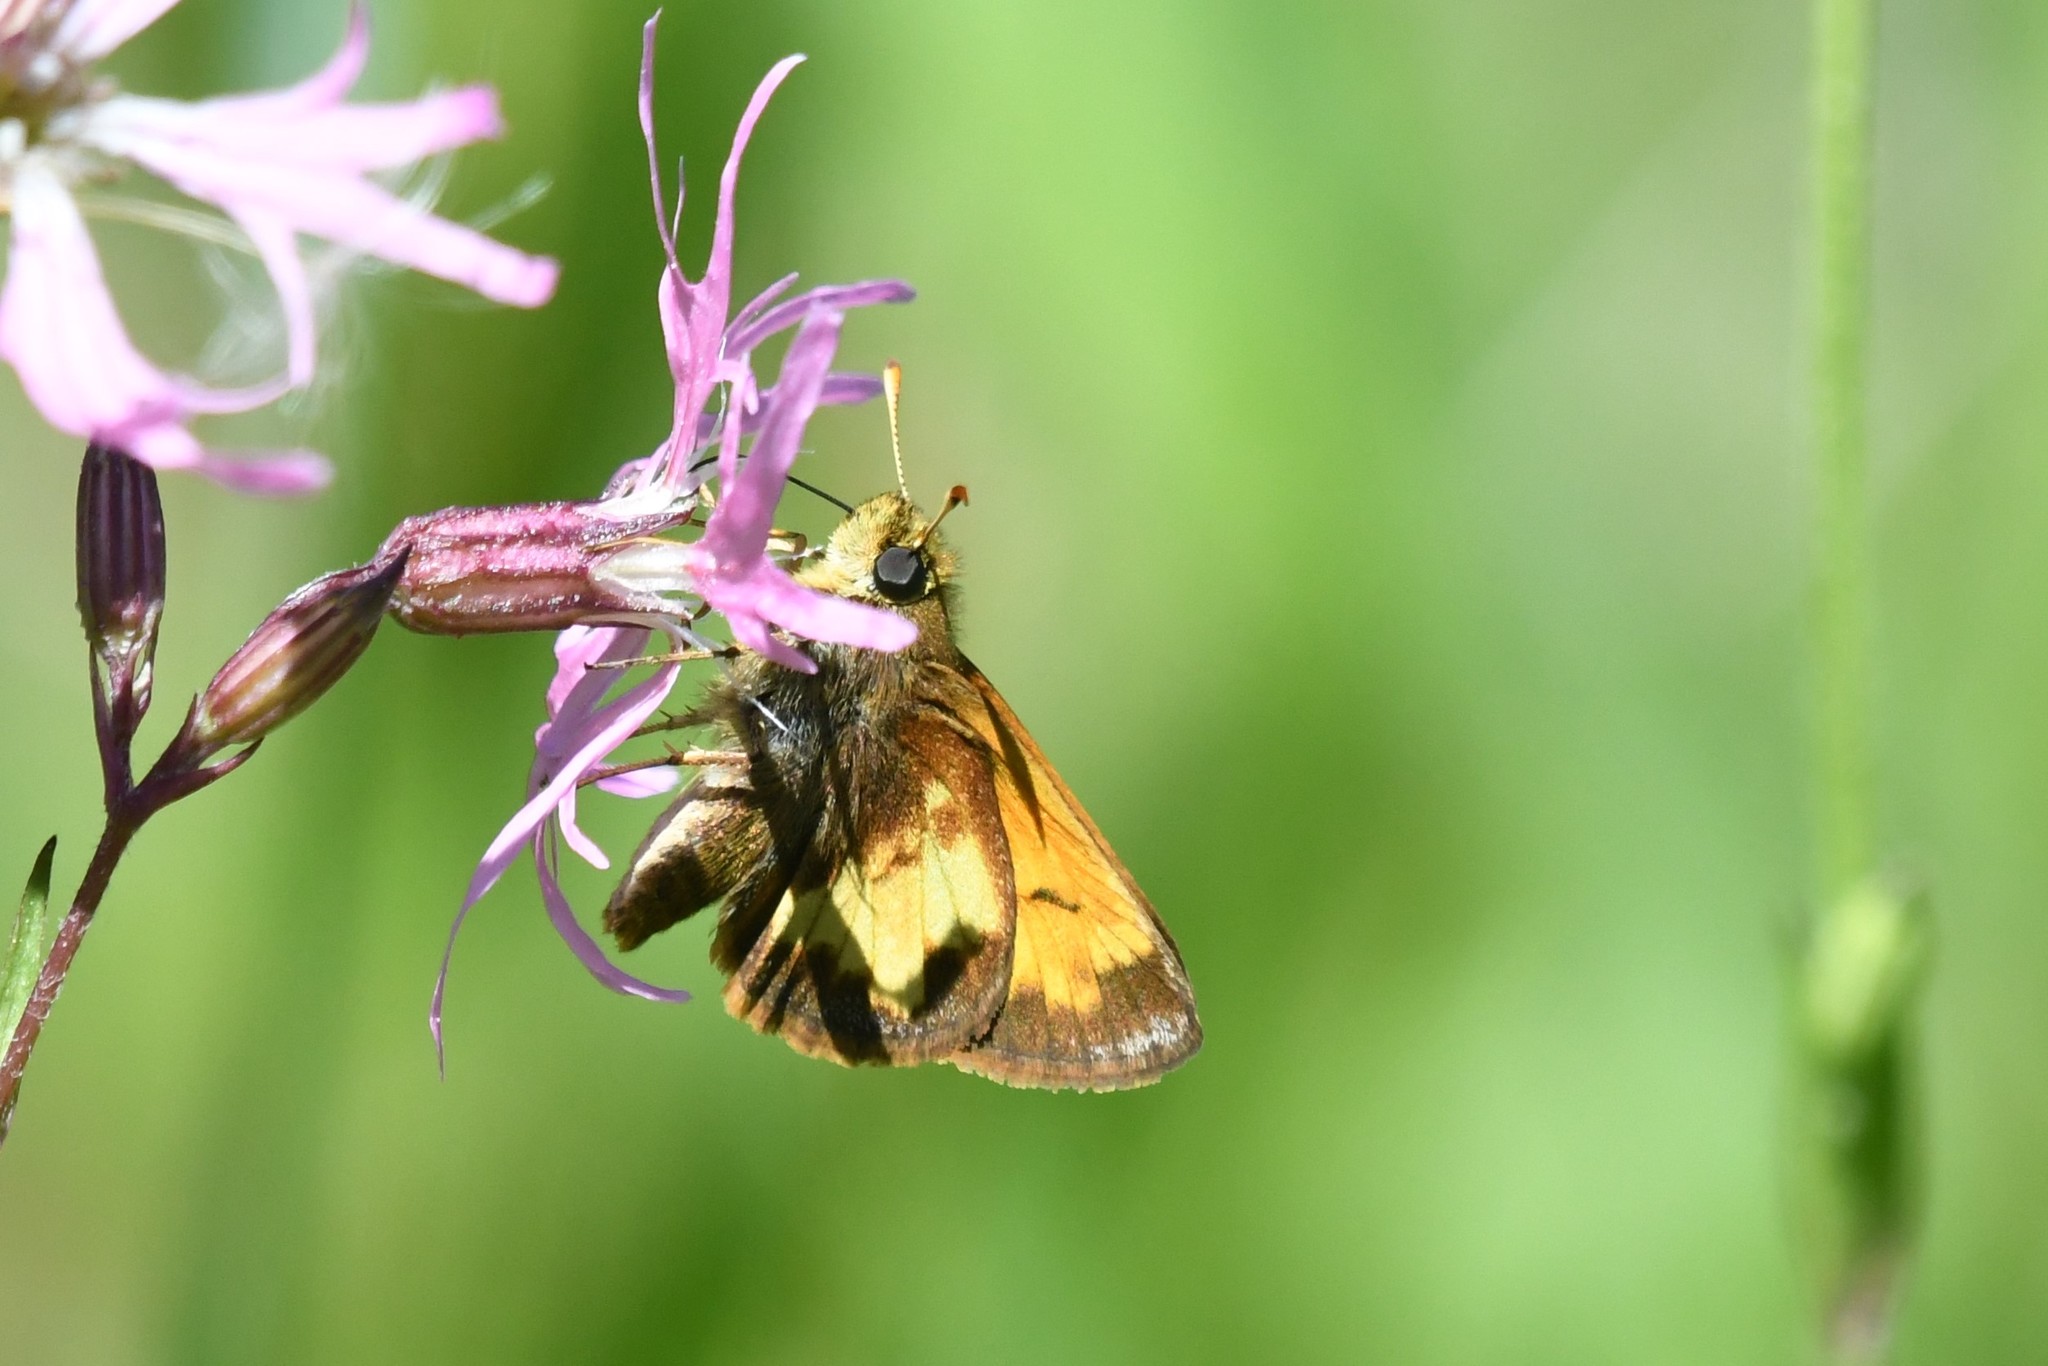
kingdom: Animalia
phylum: Arthropoda
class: Insecta
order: Lepidoptera
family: Hesperiidae
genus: Lon
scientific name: Lon hobomok
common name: Hobomok skipper
